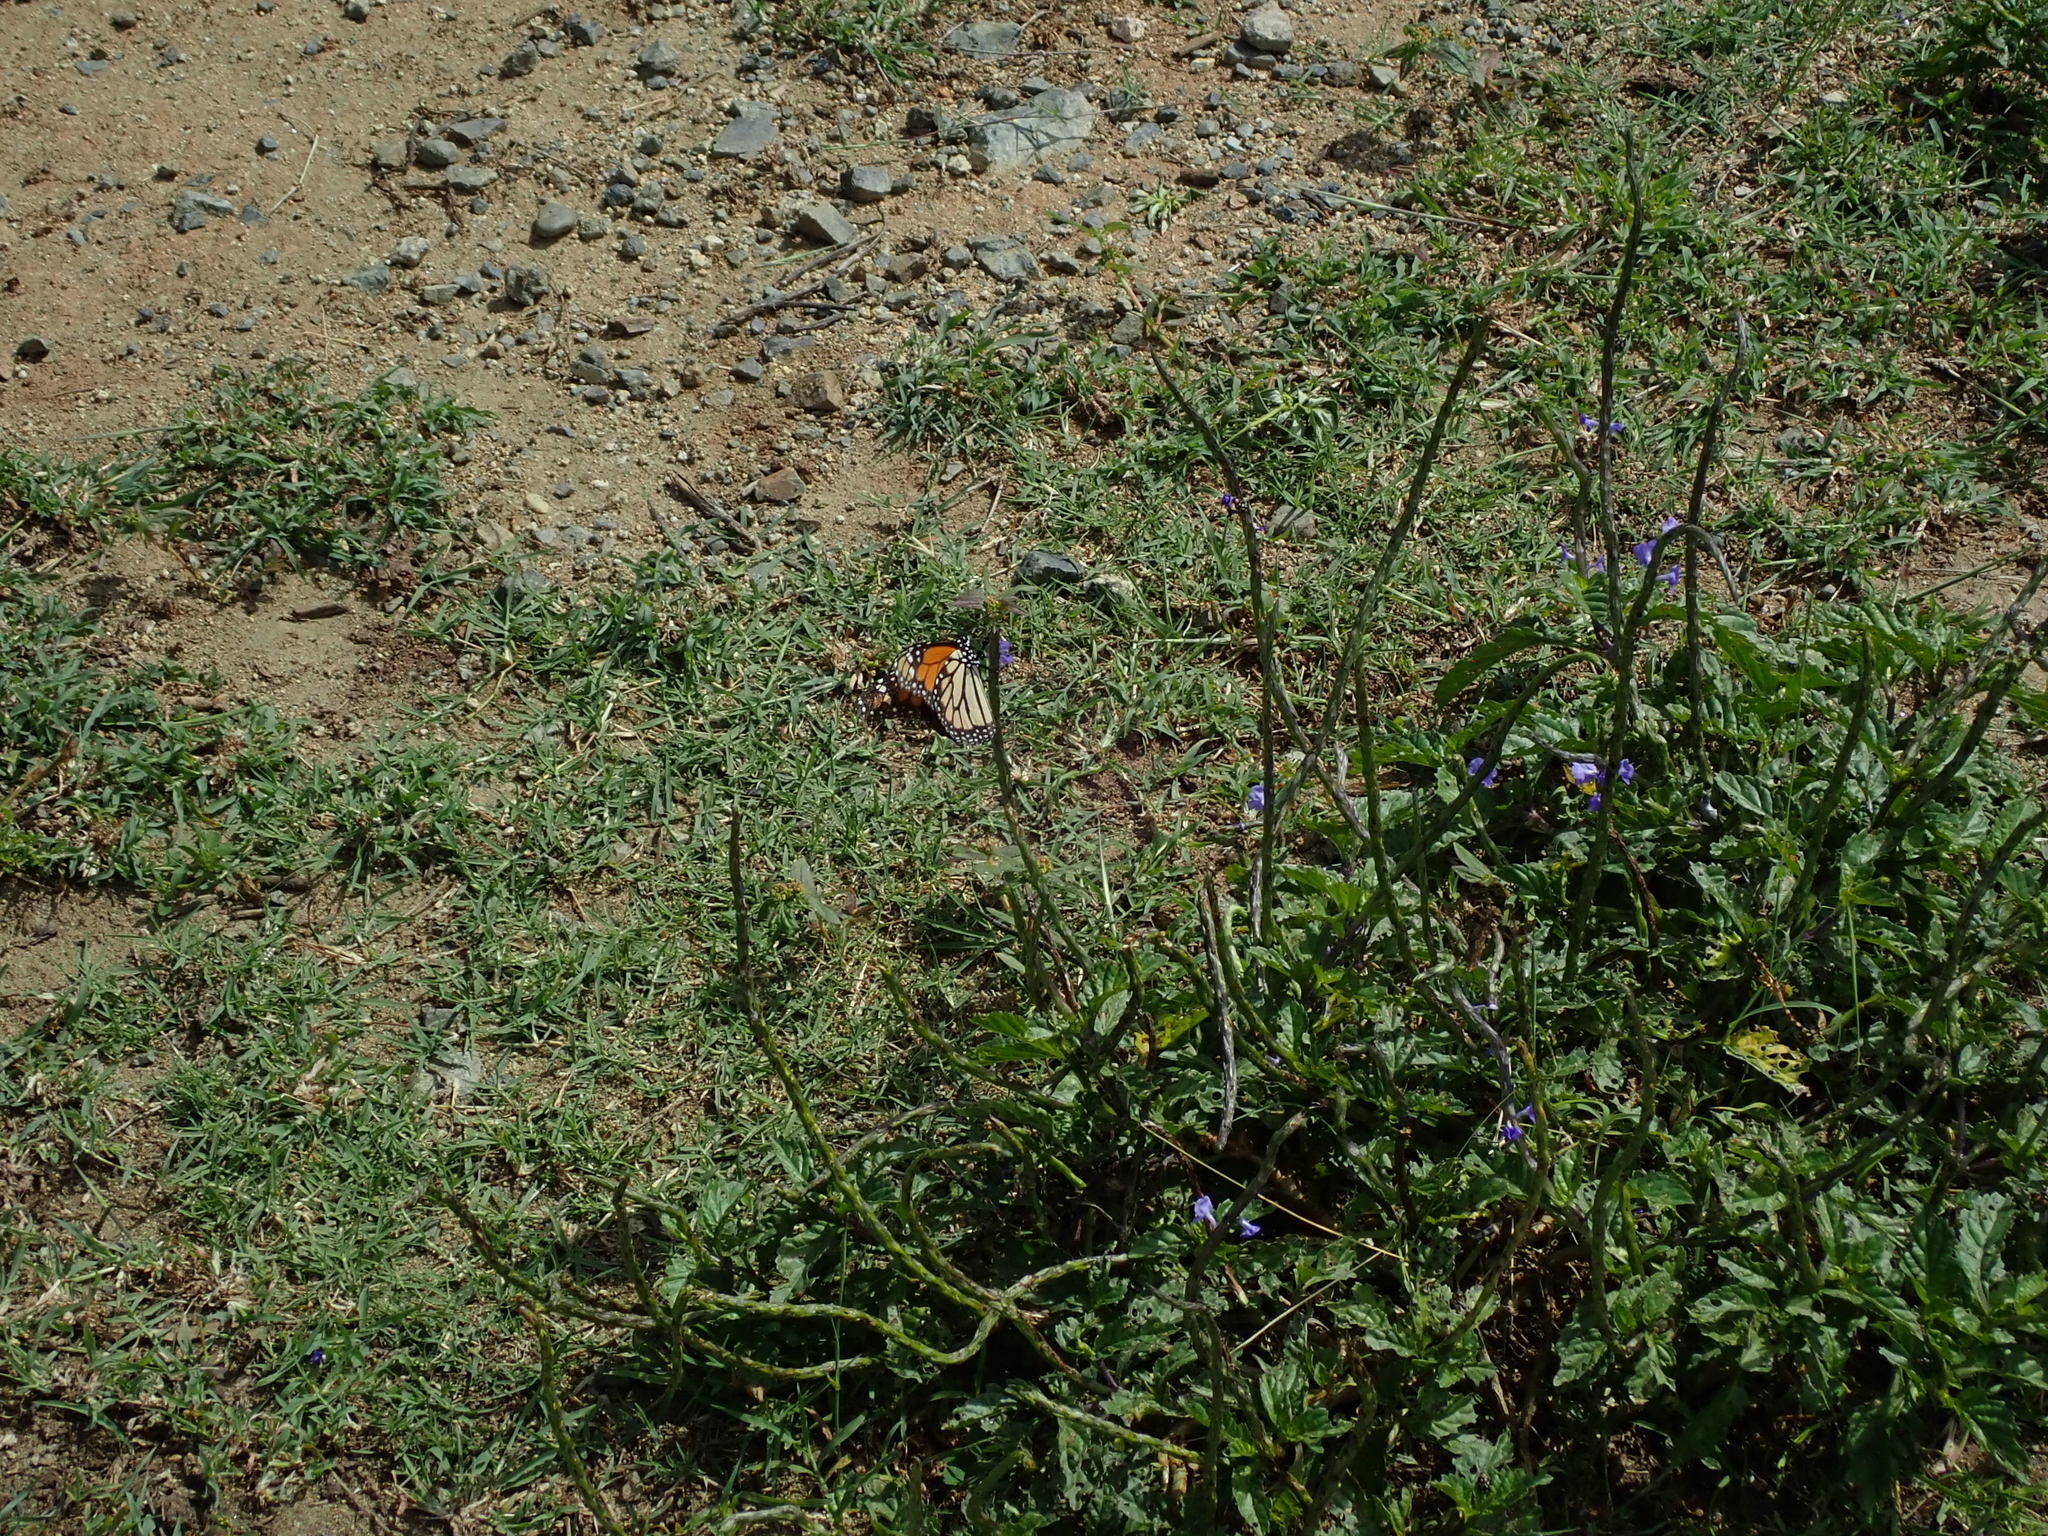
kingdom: Animalia
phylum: Arthropoda
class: Insecta
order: Lepidoptera
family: Nymphalidae
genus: Danaus
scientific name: Danaus plexippus
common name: Monarch
